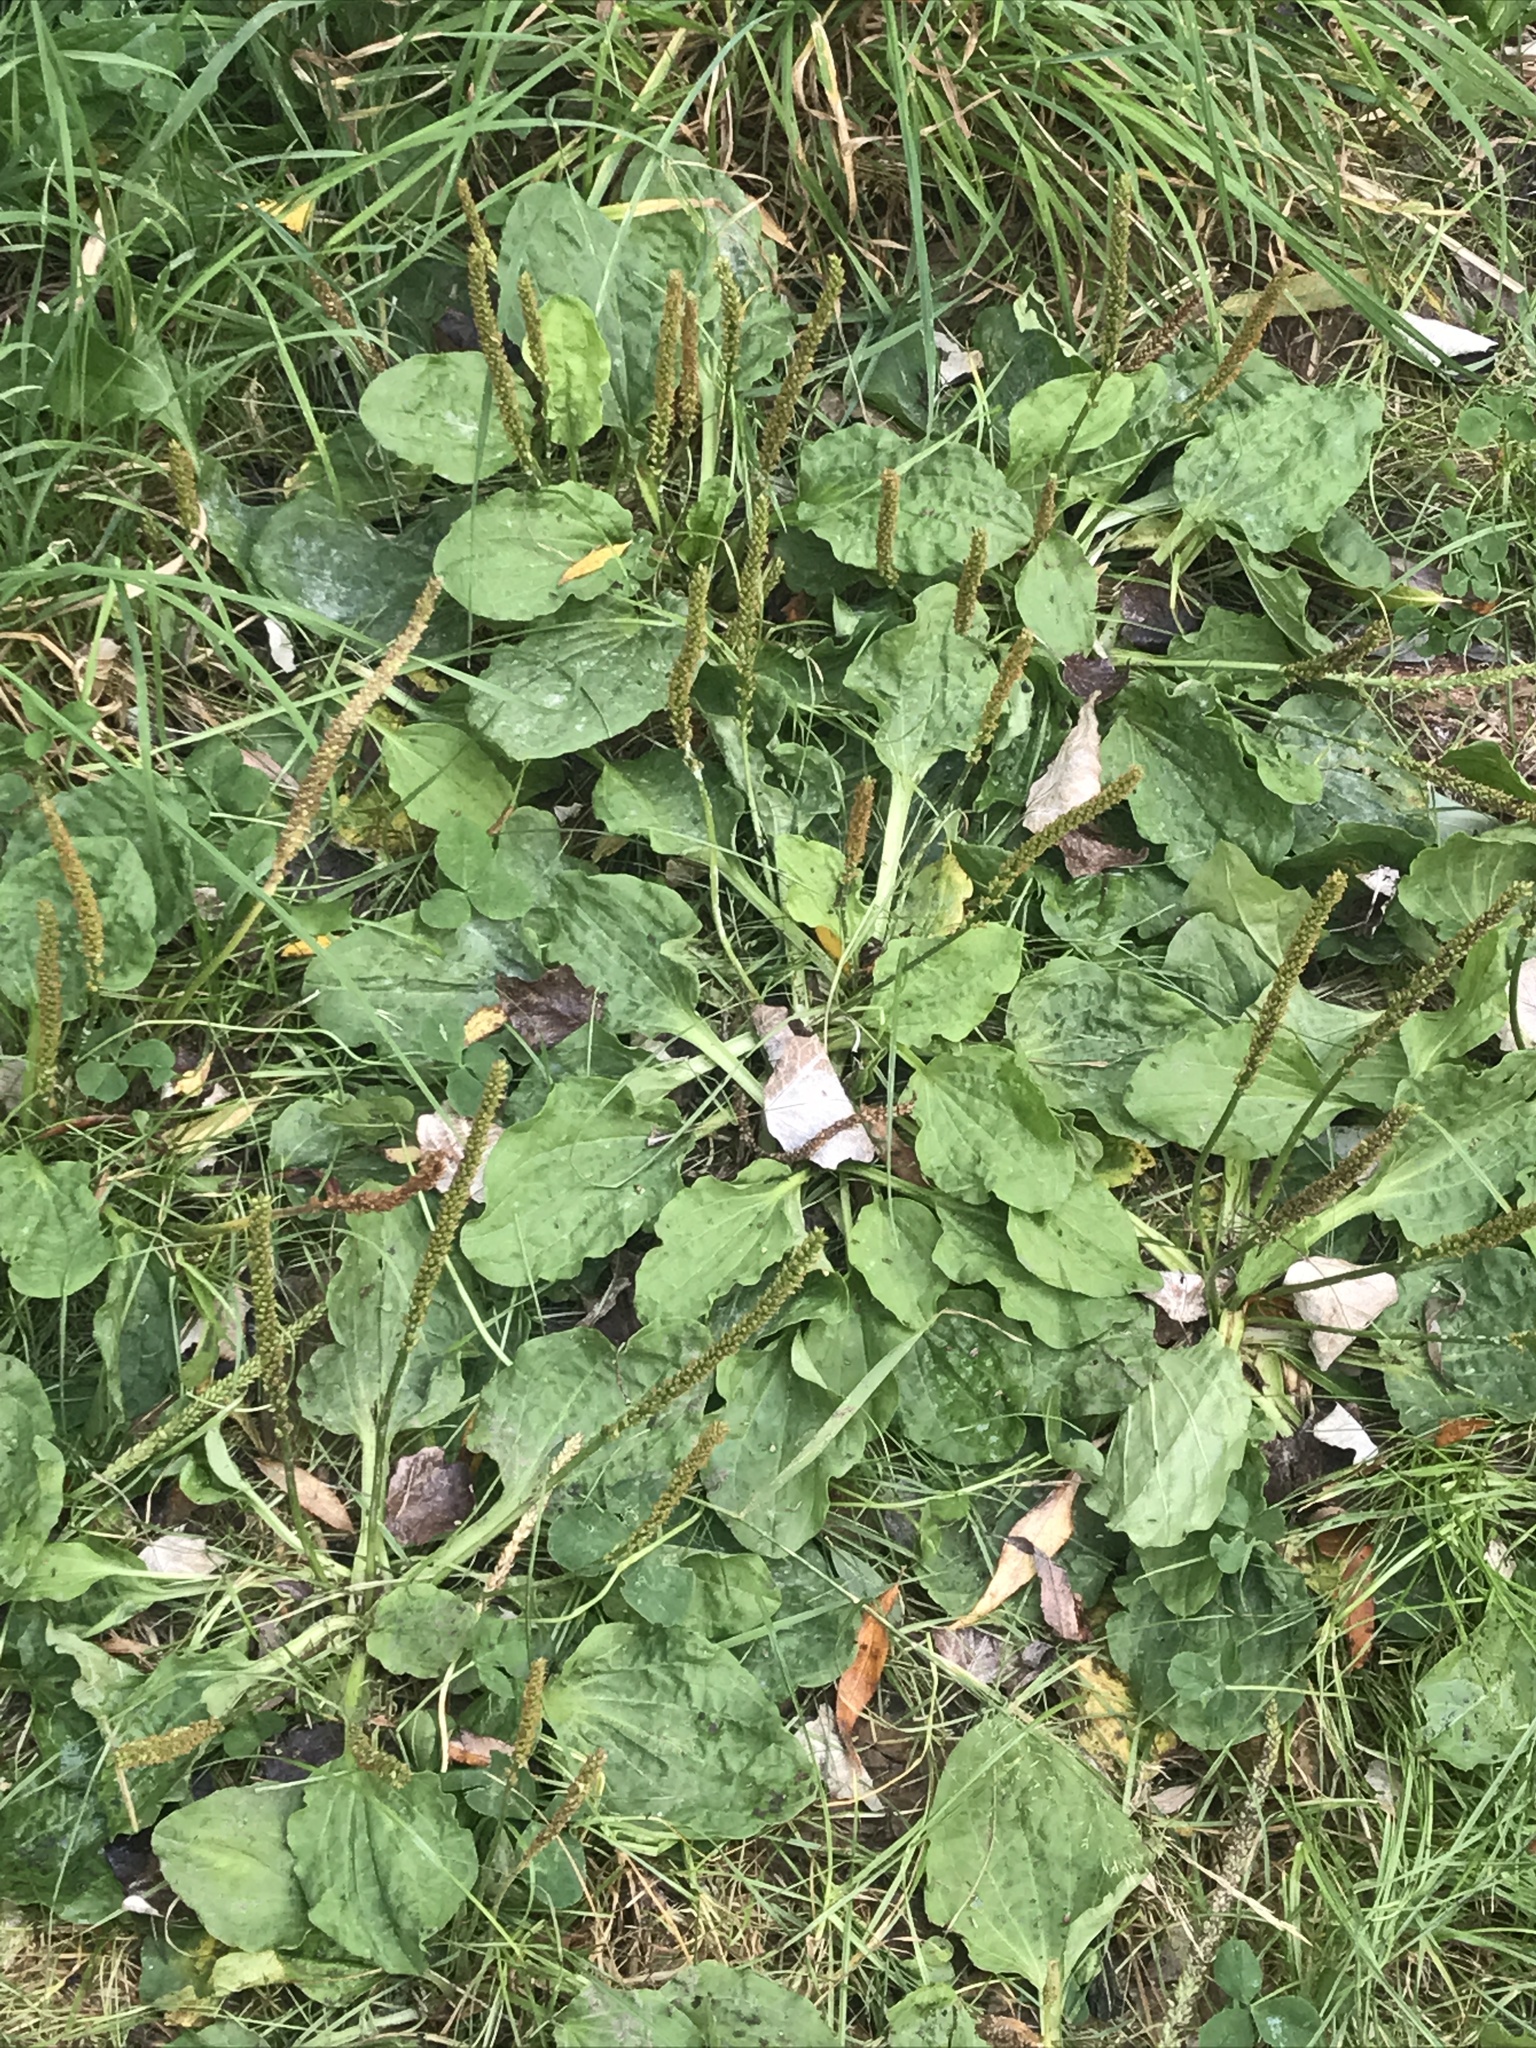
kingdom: Plantae
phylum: Tracheophyta
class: Magnoliopsida
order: Lamiales
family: Plantaginaceae
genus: Plantago
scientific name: Plantago major
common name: Common plantain
